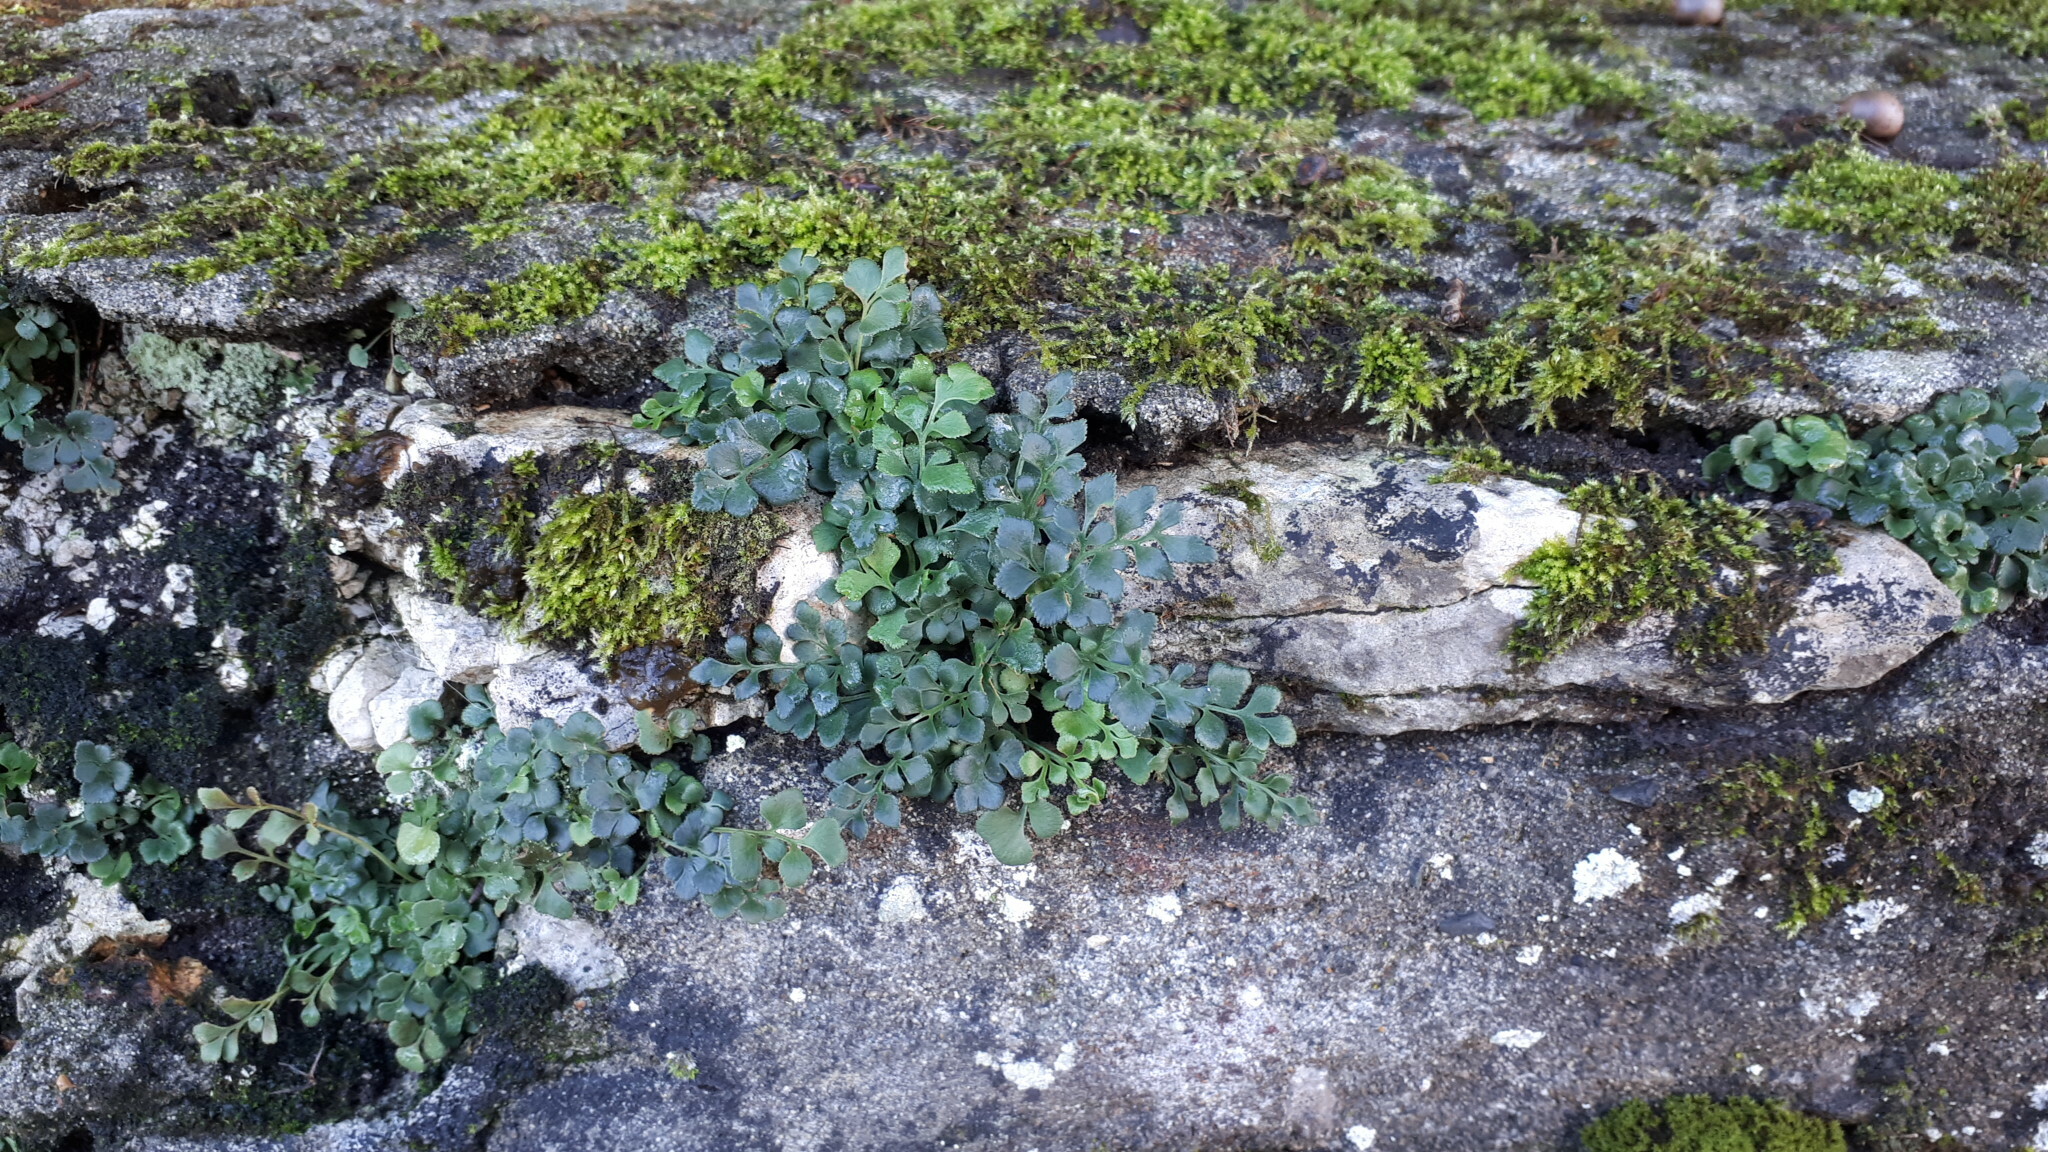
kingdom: Plantae
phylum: Tracheophyta
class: Polypodiopsida
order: Polypodiales
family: Aspleniaceae
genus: Asplenium
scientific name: Asplenium ruta-muraria
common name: Wall-rue
